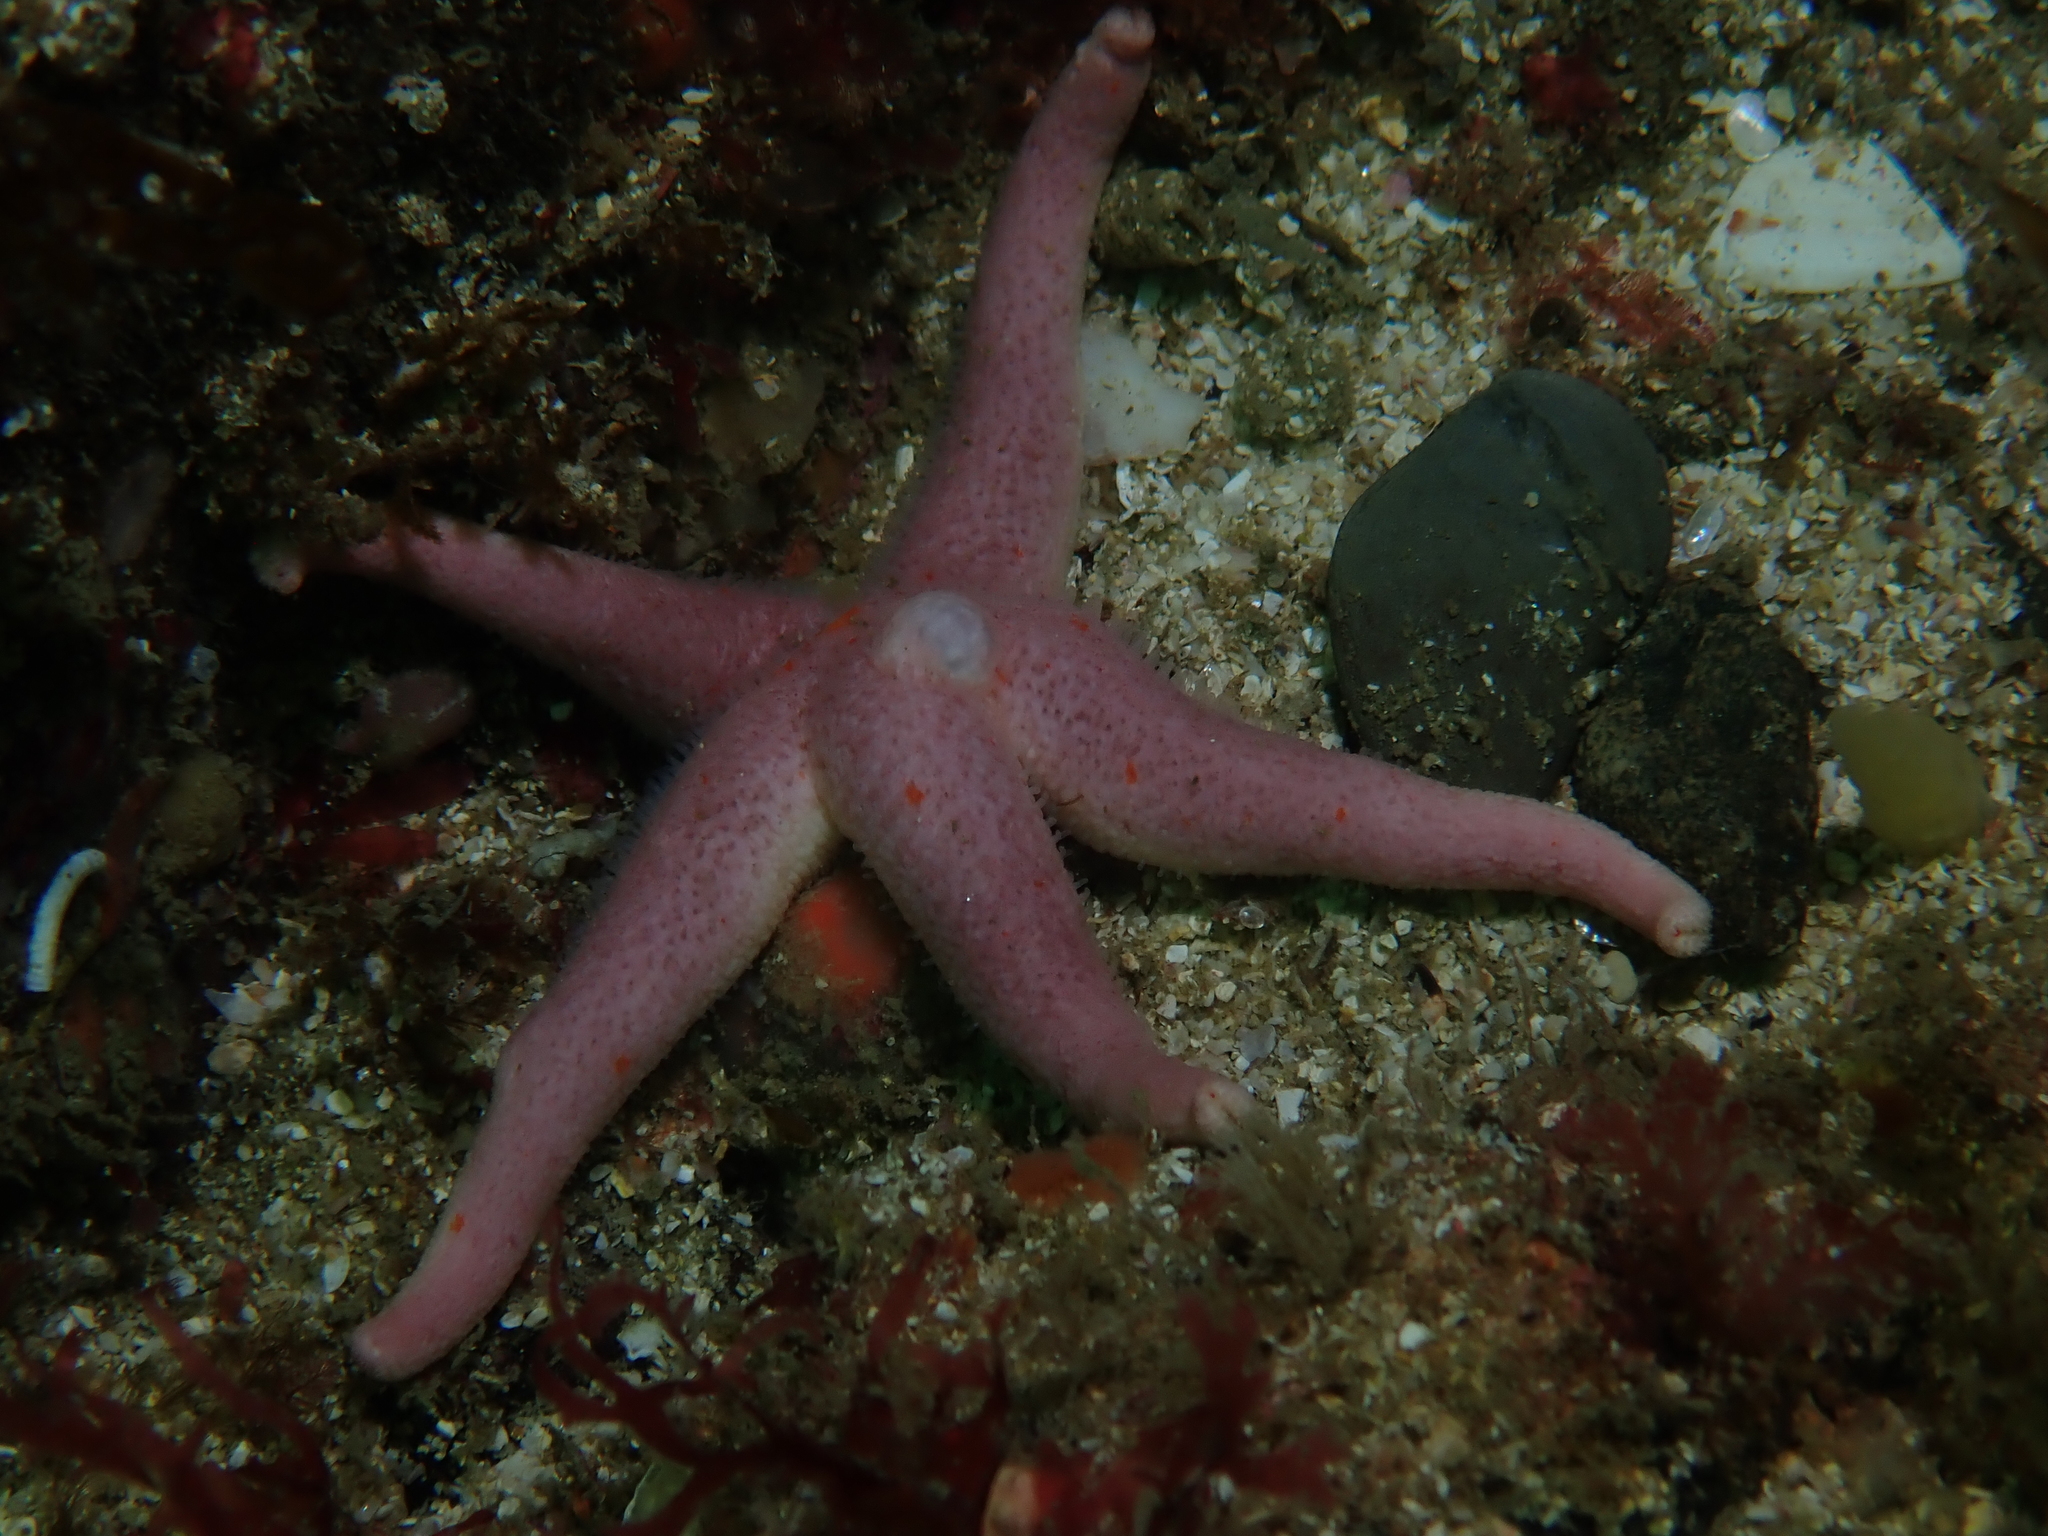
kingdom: Animalia
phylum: Echinodermata
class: Asteroidea
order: Spinulosida
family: Echinasteridae
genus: Henricia
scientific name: Henricia oculata
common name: Bloody henry starfish
